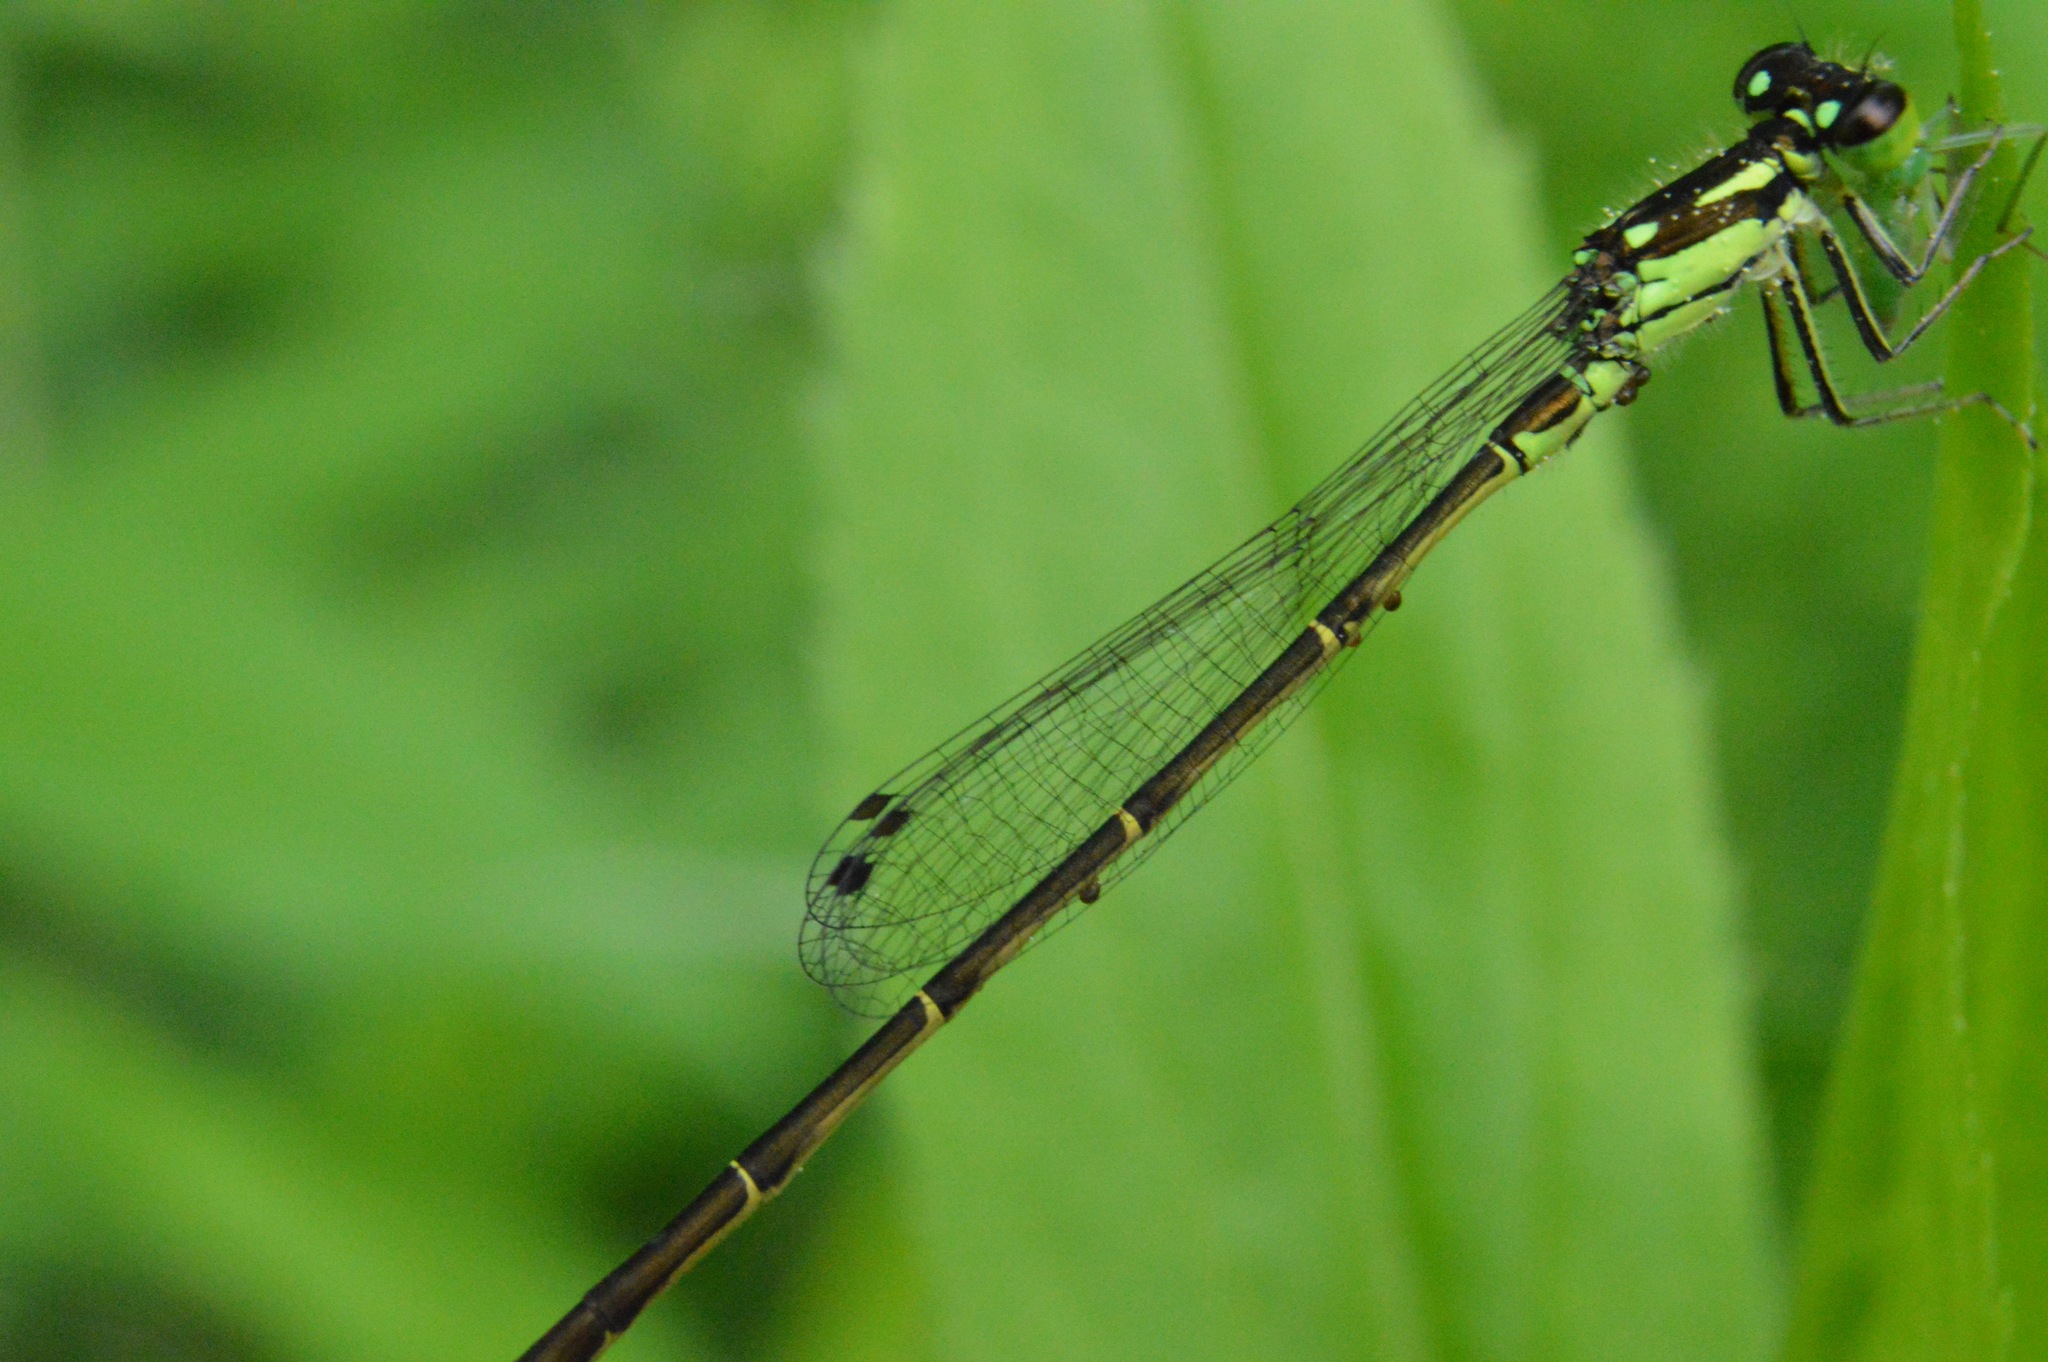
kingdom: Animalia
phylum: Arthropoda
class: Insecta
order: Odonata
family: Coenagrionidae
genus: Ischnura
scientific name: Ischnura posita
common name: Fragile forktail
